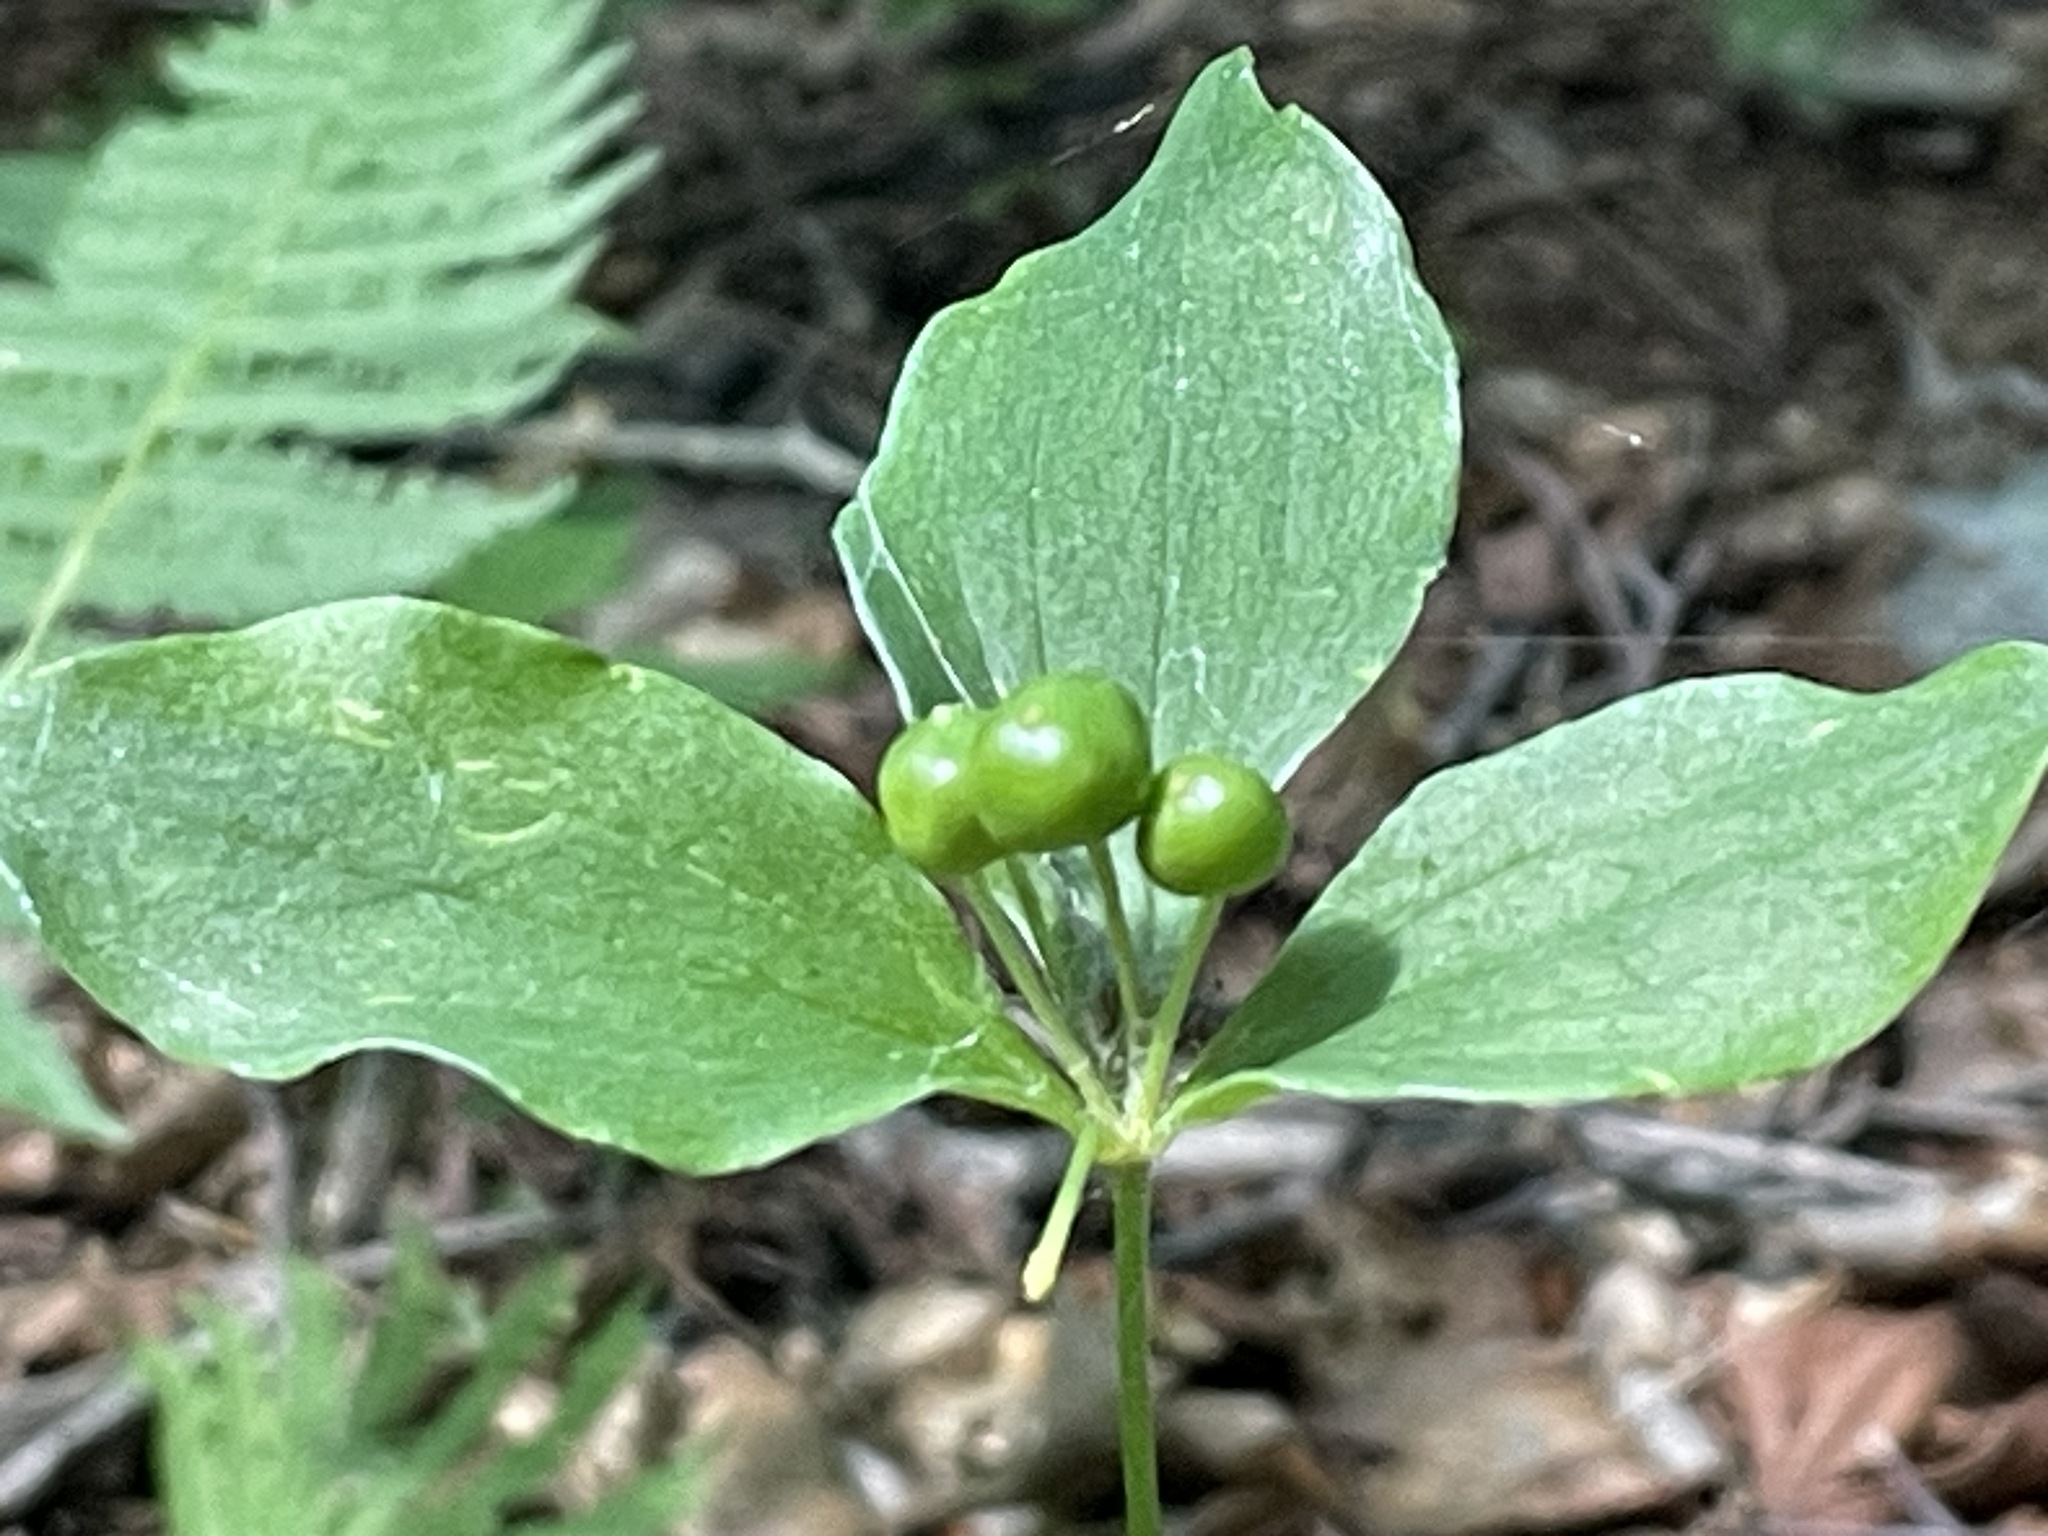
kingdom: Plantae
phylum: Tracheophyta
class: Liliopsida
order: Liliales
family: Liliaceae
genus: Medeola
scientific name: Medeola virginiana
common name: Indian cucumber-root
